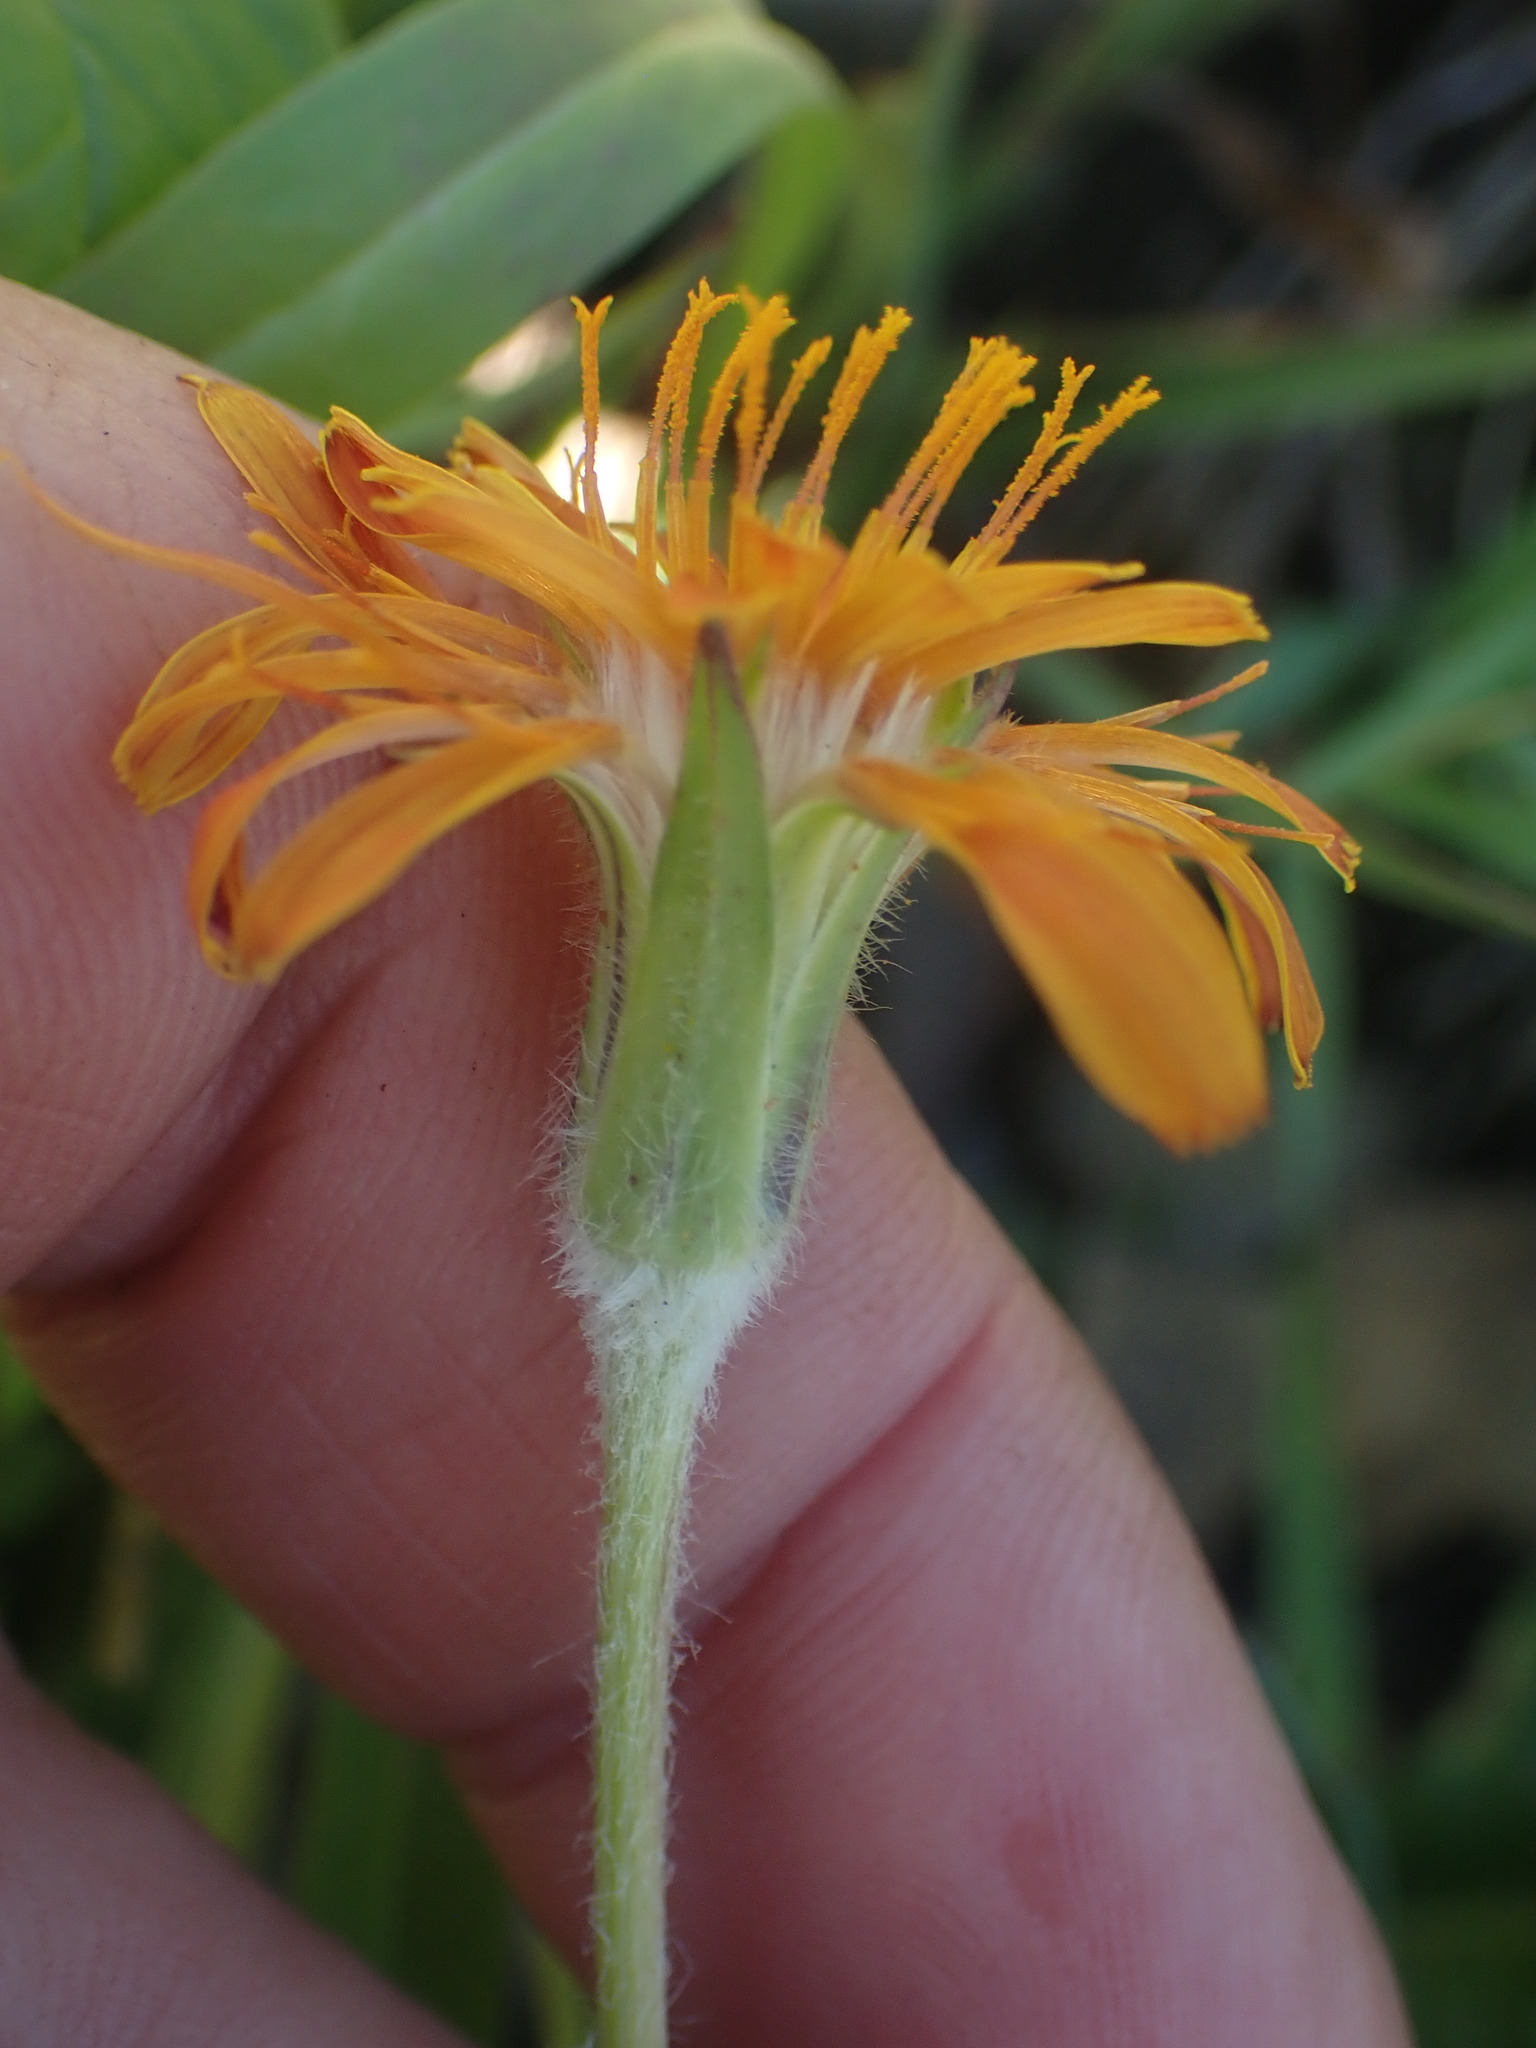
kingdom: Plantae
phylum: Tracheophyta
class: Magnoliopsida
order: Asterales
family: Asteraceae
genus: Agoseris
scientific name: Agoseris aurantiaca
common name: Mountain agoseris
